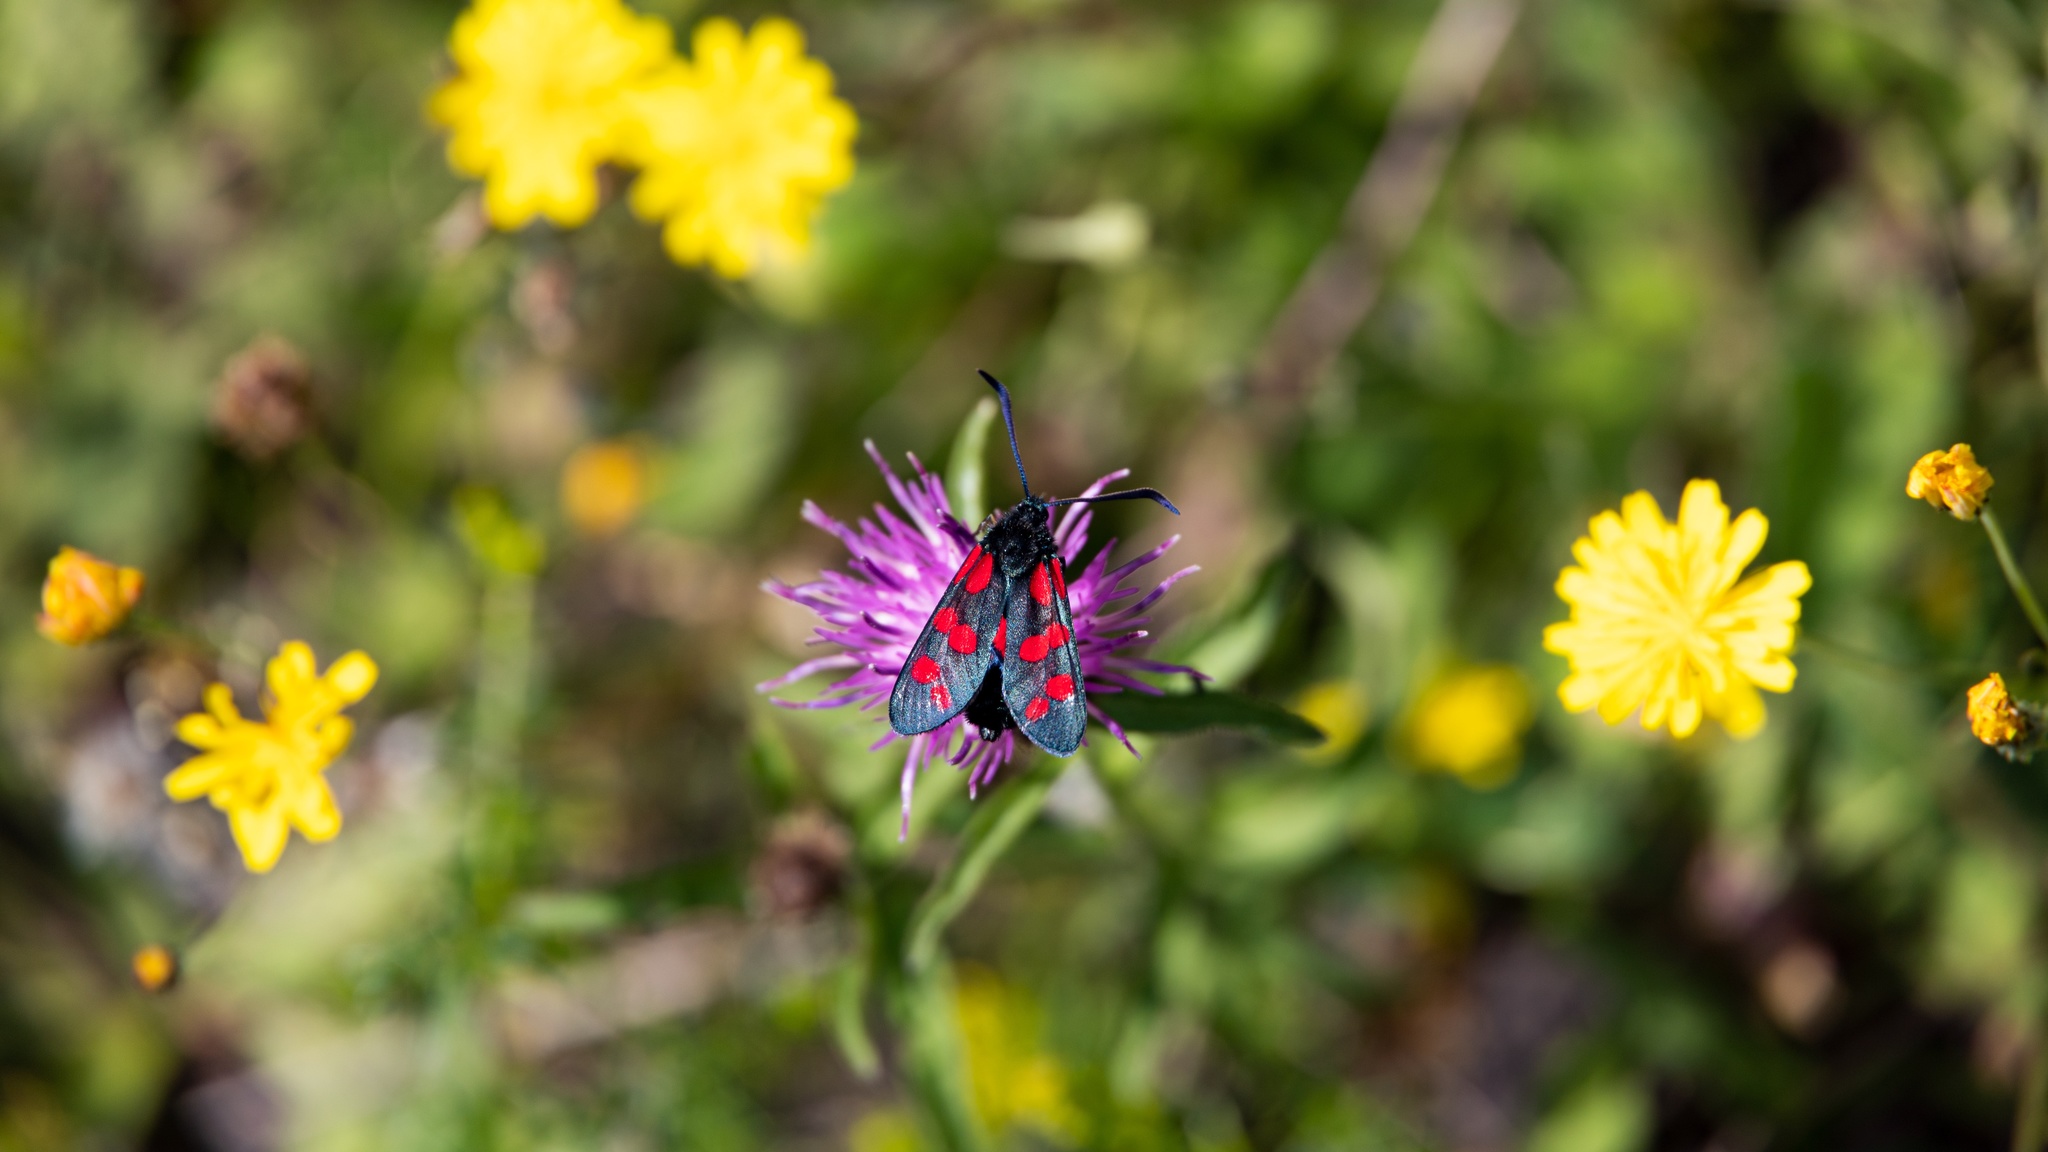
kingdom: Animalia
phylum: Arthropoda
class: Insecta
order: Lepidoptera
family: Zygaenidae
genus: Zygaena
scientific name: Zygaena filipendulae
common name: Six-spot burnet
